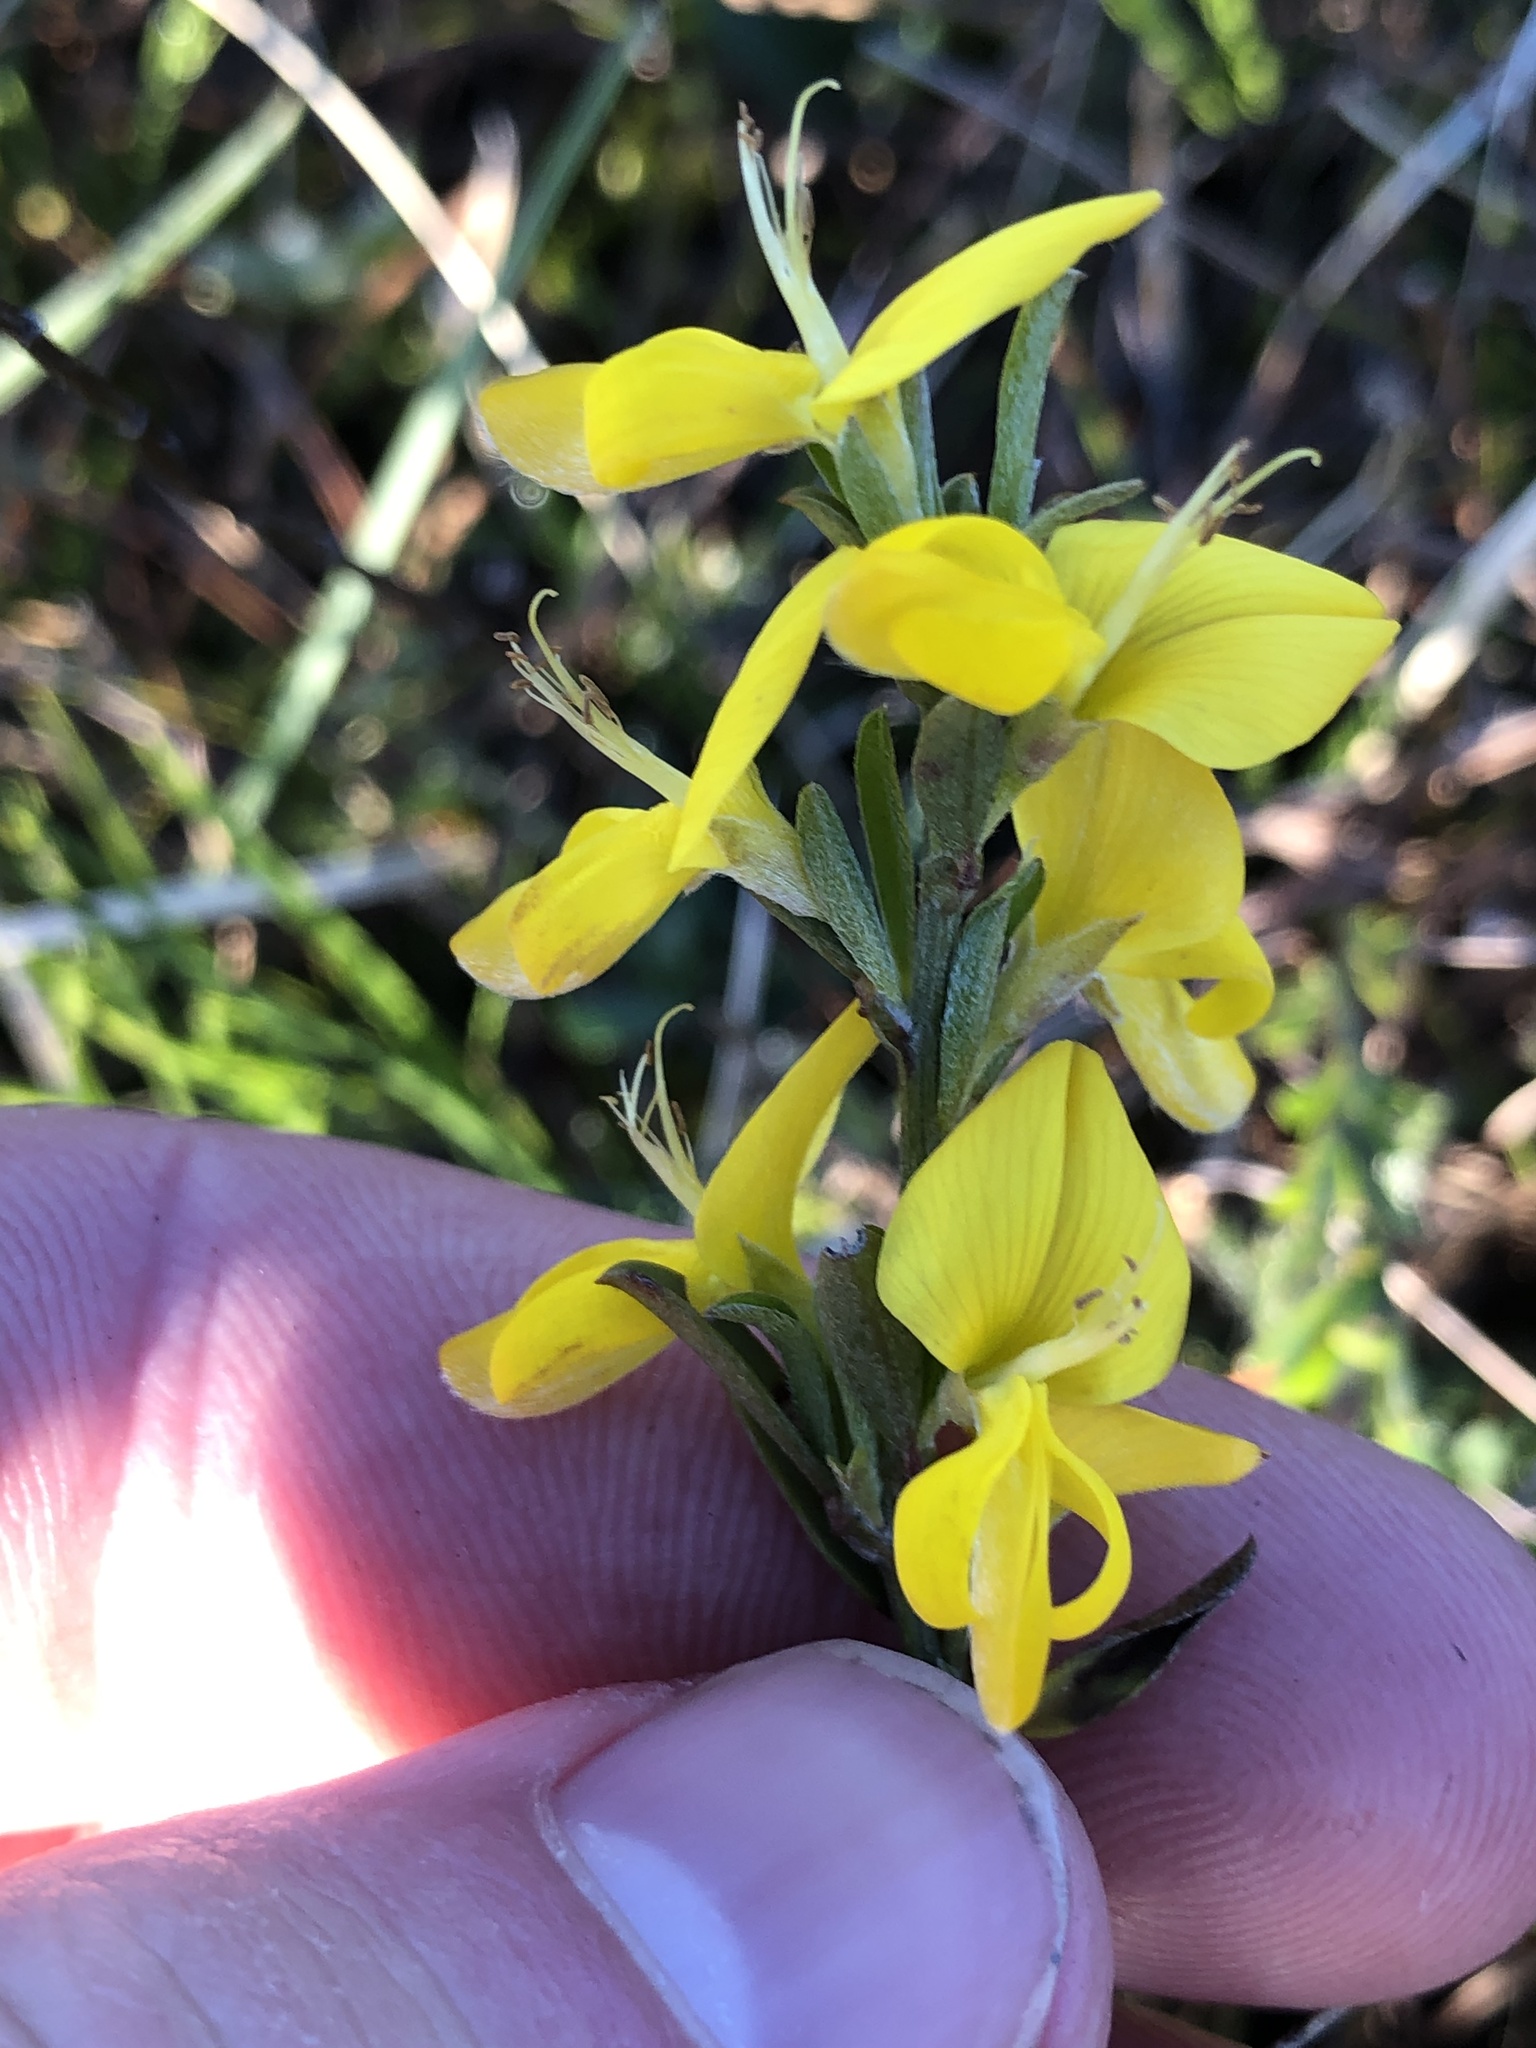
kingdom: Plantae
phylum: Tracheophyta
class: Magnoliopsida
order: Fabales
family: Fabaceae
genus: Genista
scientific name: Genista pilosa
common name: Hairy greenweed
